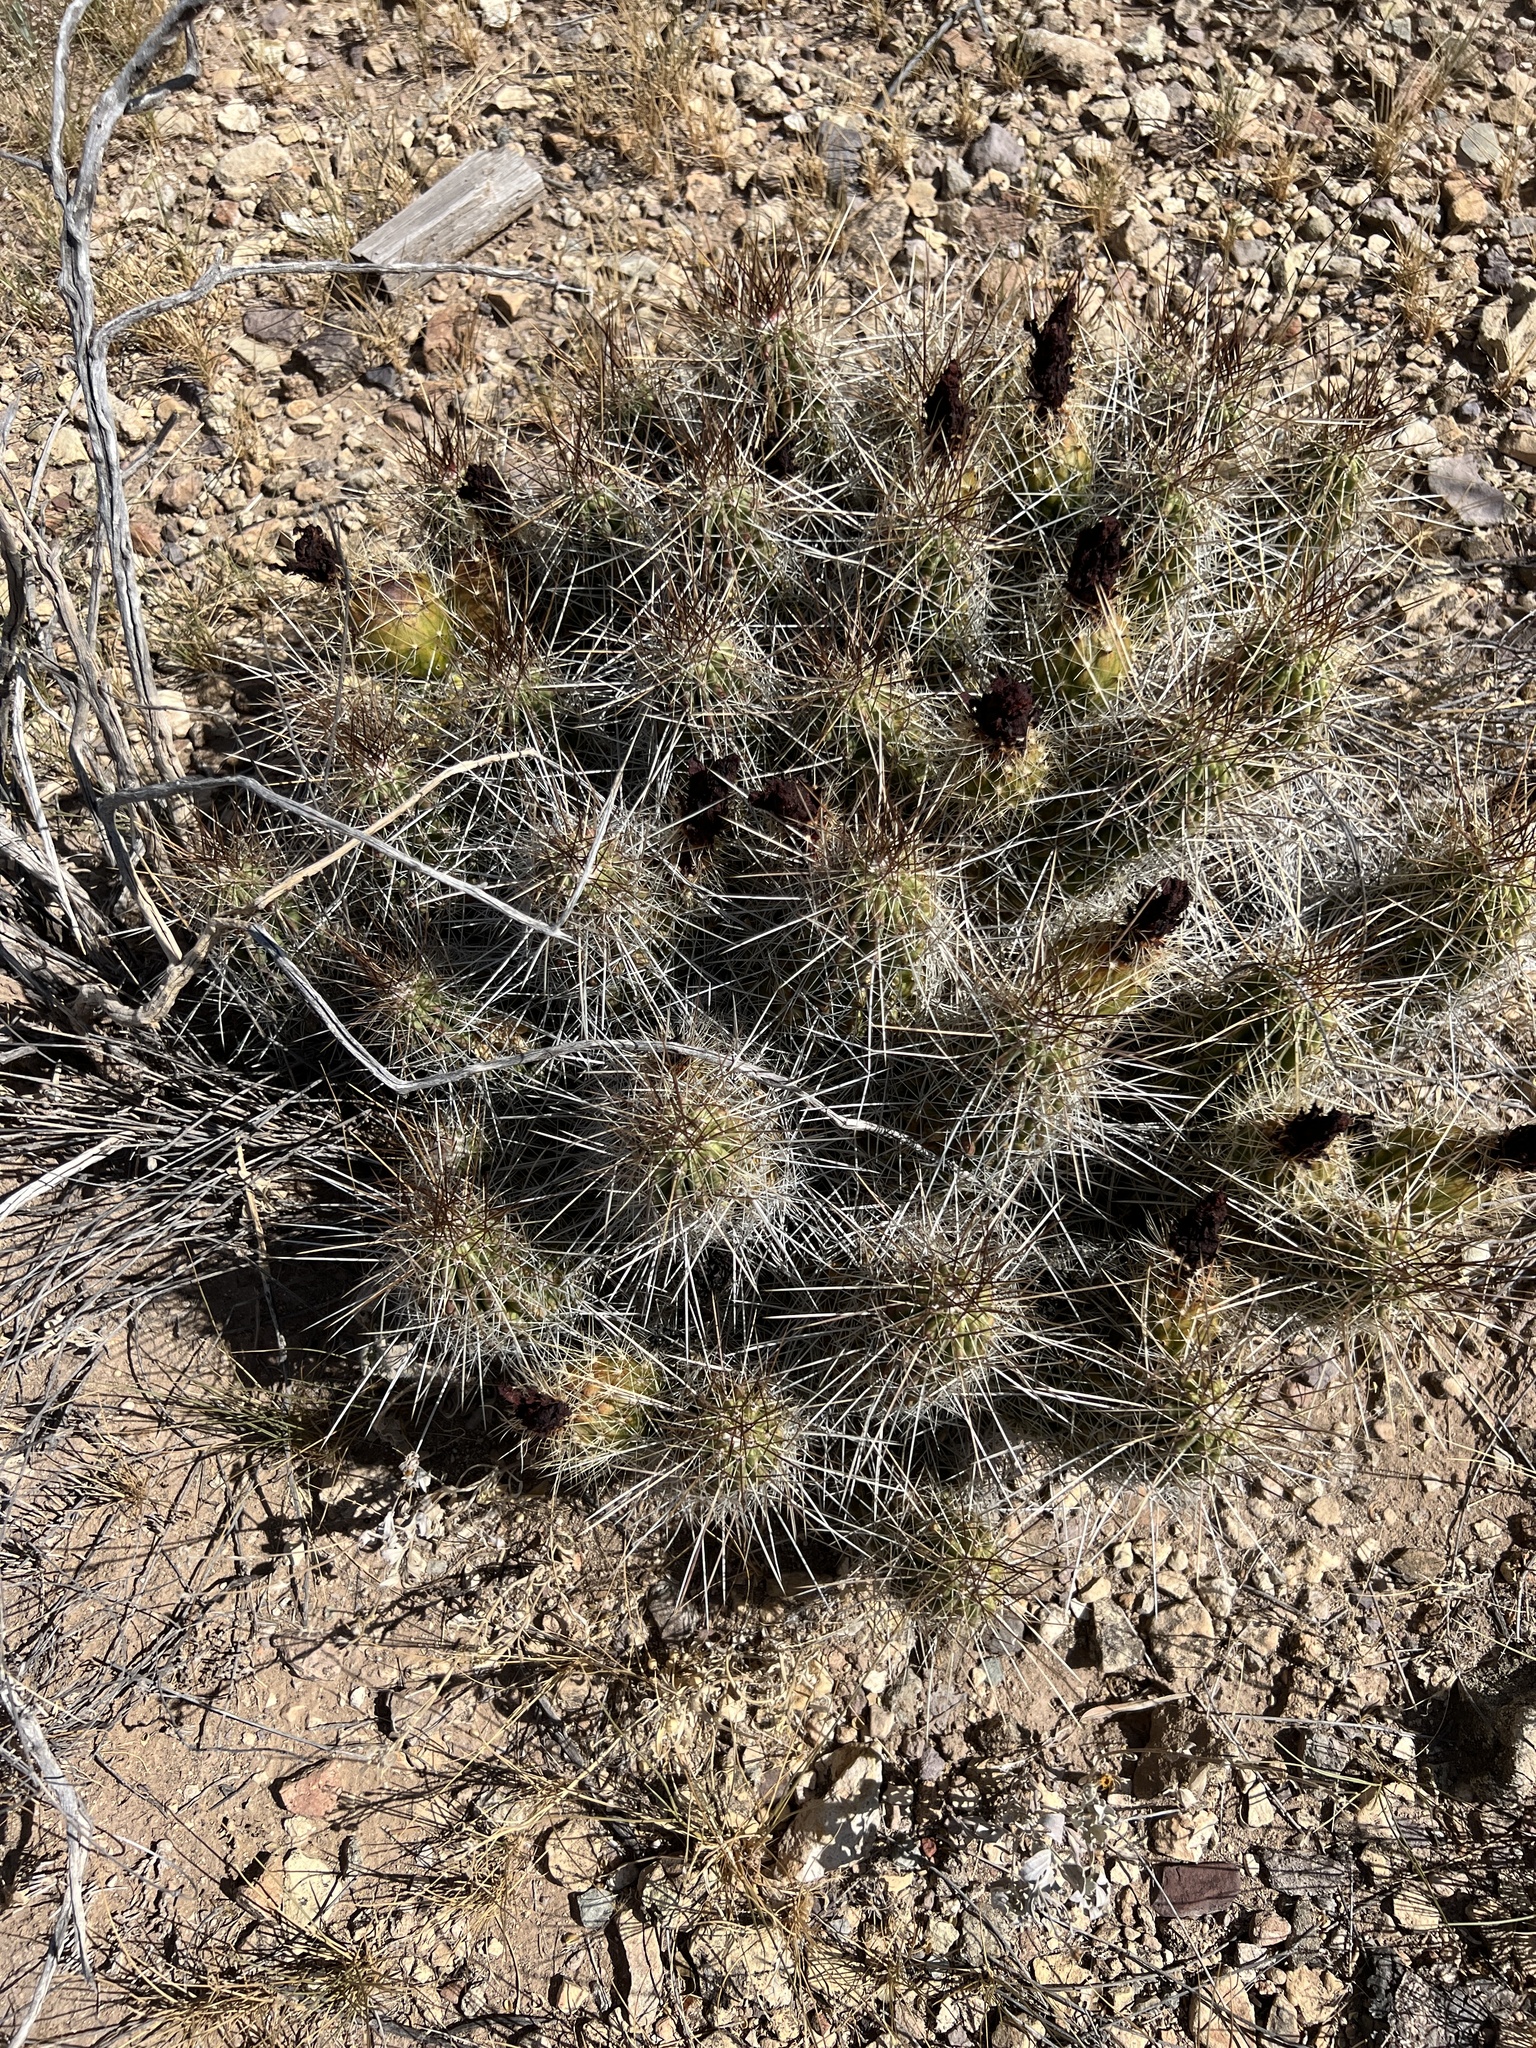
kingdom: Plantae
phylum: Tracheophyta
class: Magnoliopsida
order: Caryophyllales
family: Cactaceae
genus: Echinocereus
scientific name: Echinocereus stramineus
